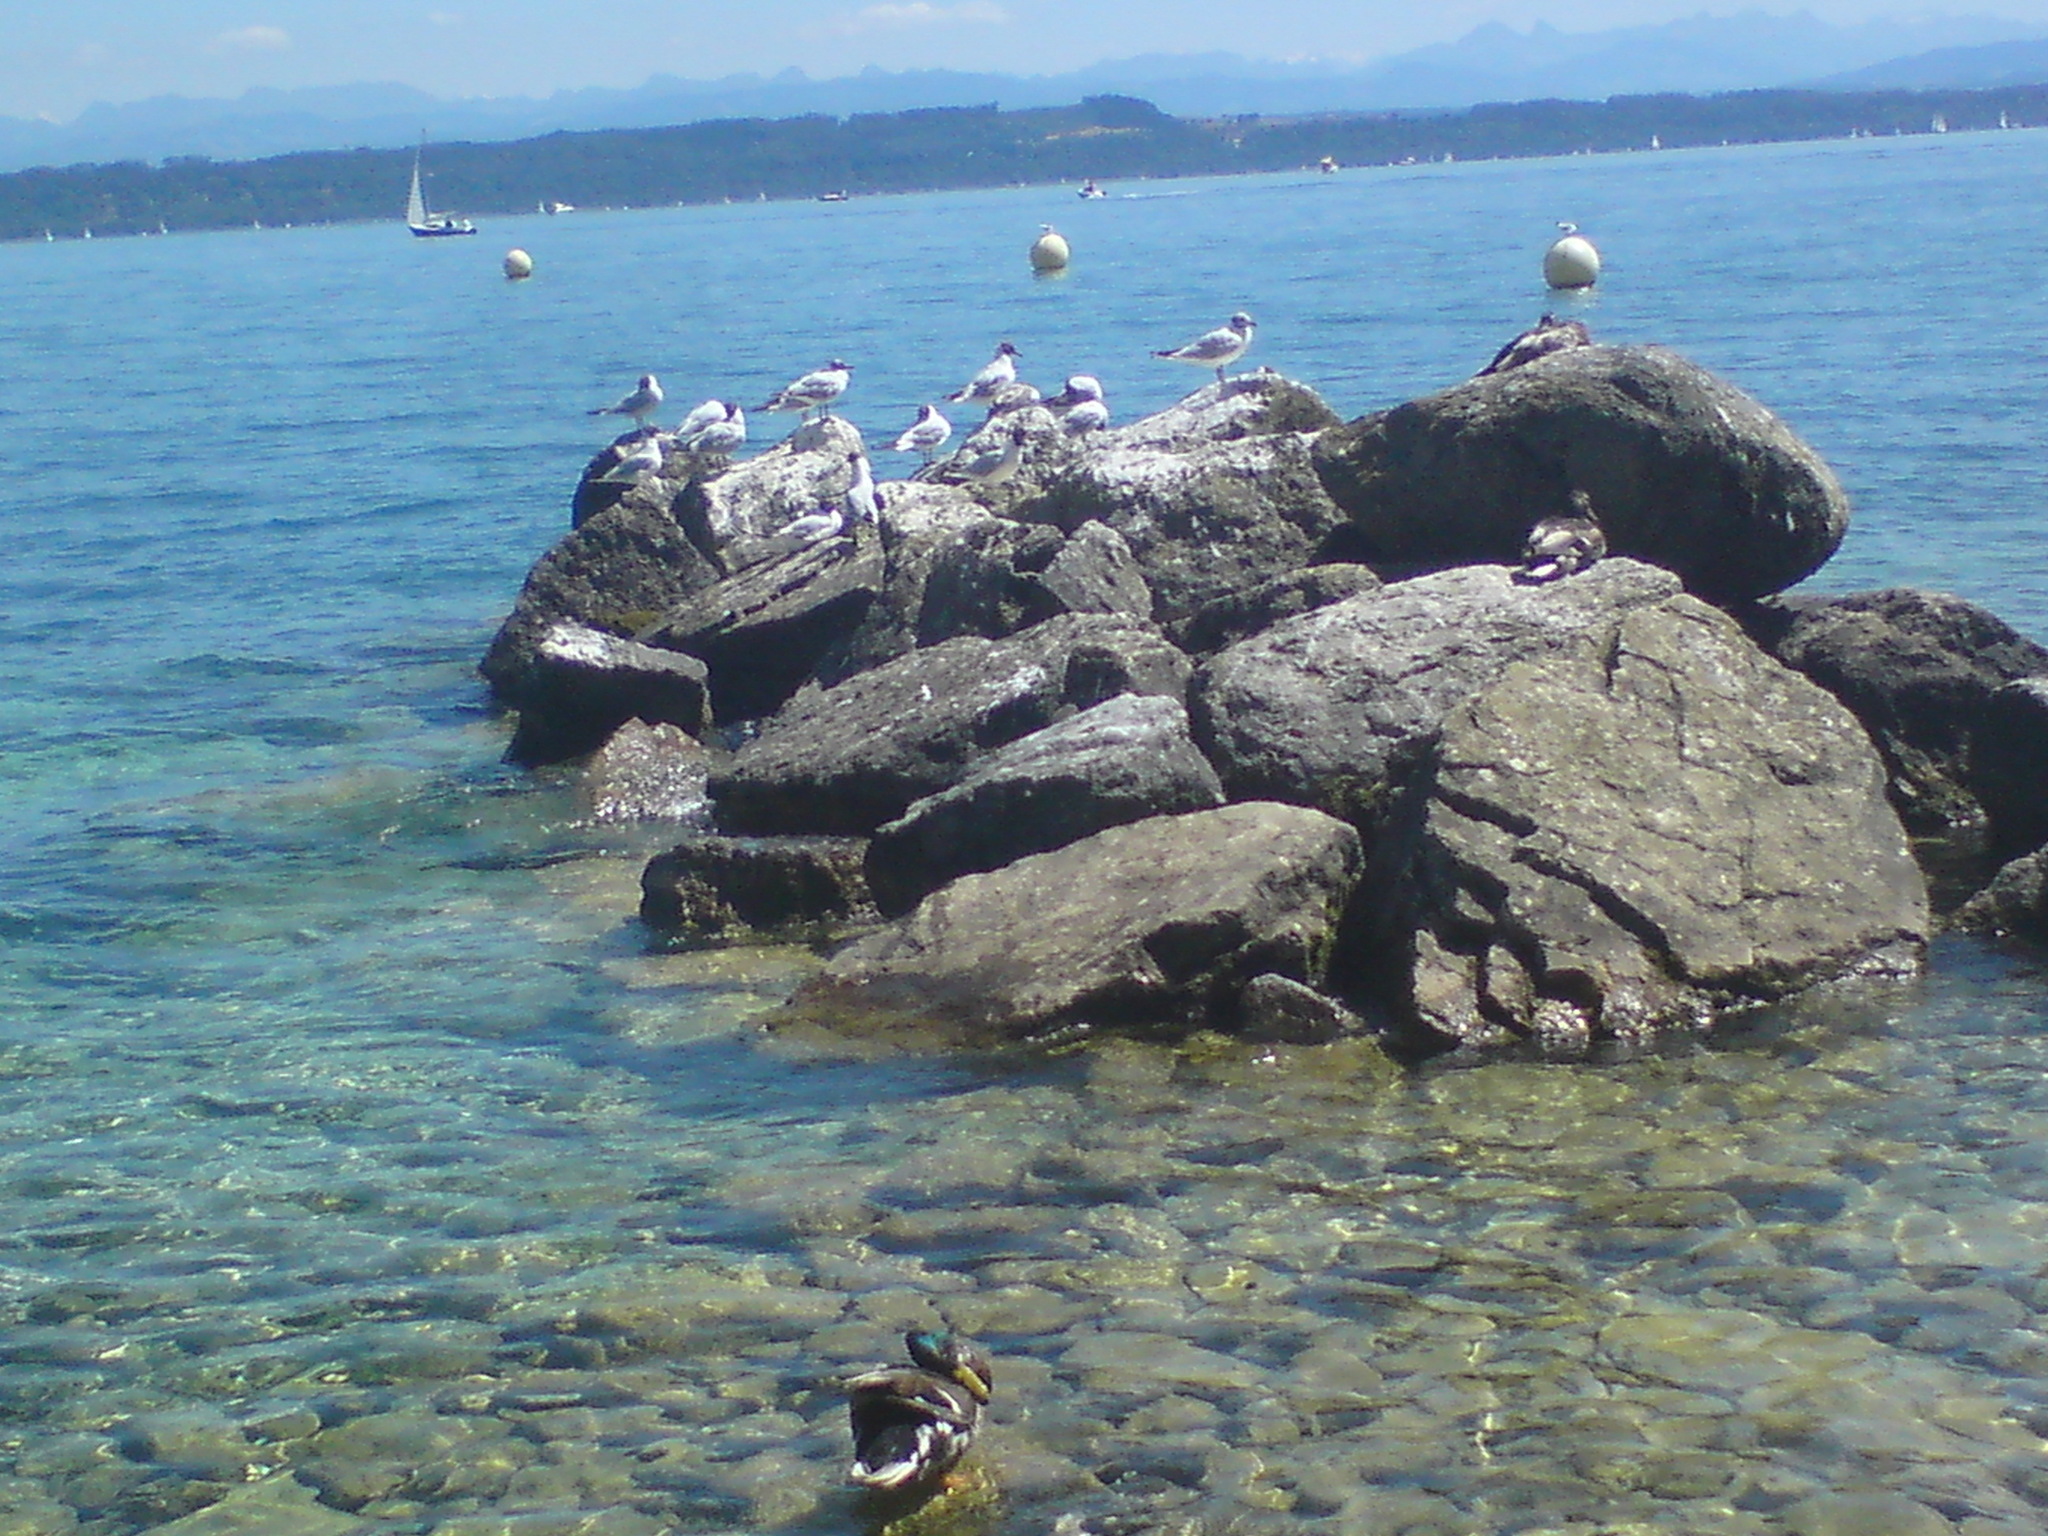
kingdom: Animalia
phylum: Chordata
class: Aves
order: Charadriiformes
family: Laridae
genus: Chroicocephalus
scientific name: Chroicocephalus ridibundus
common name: Black-headed gull
